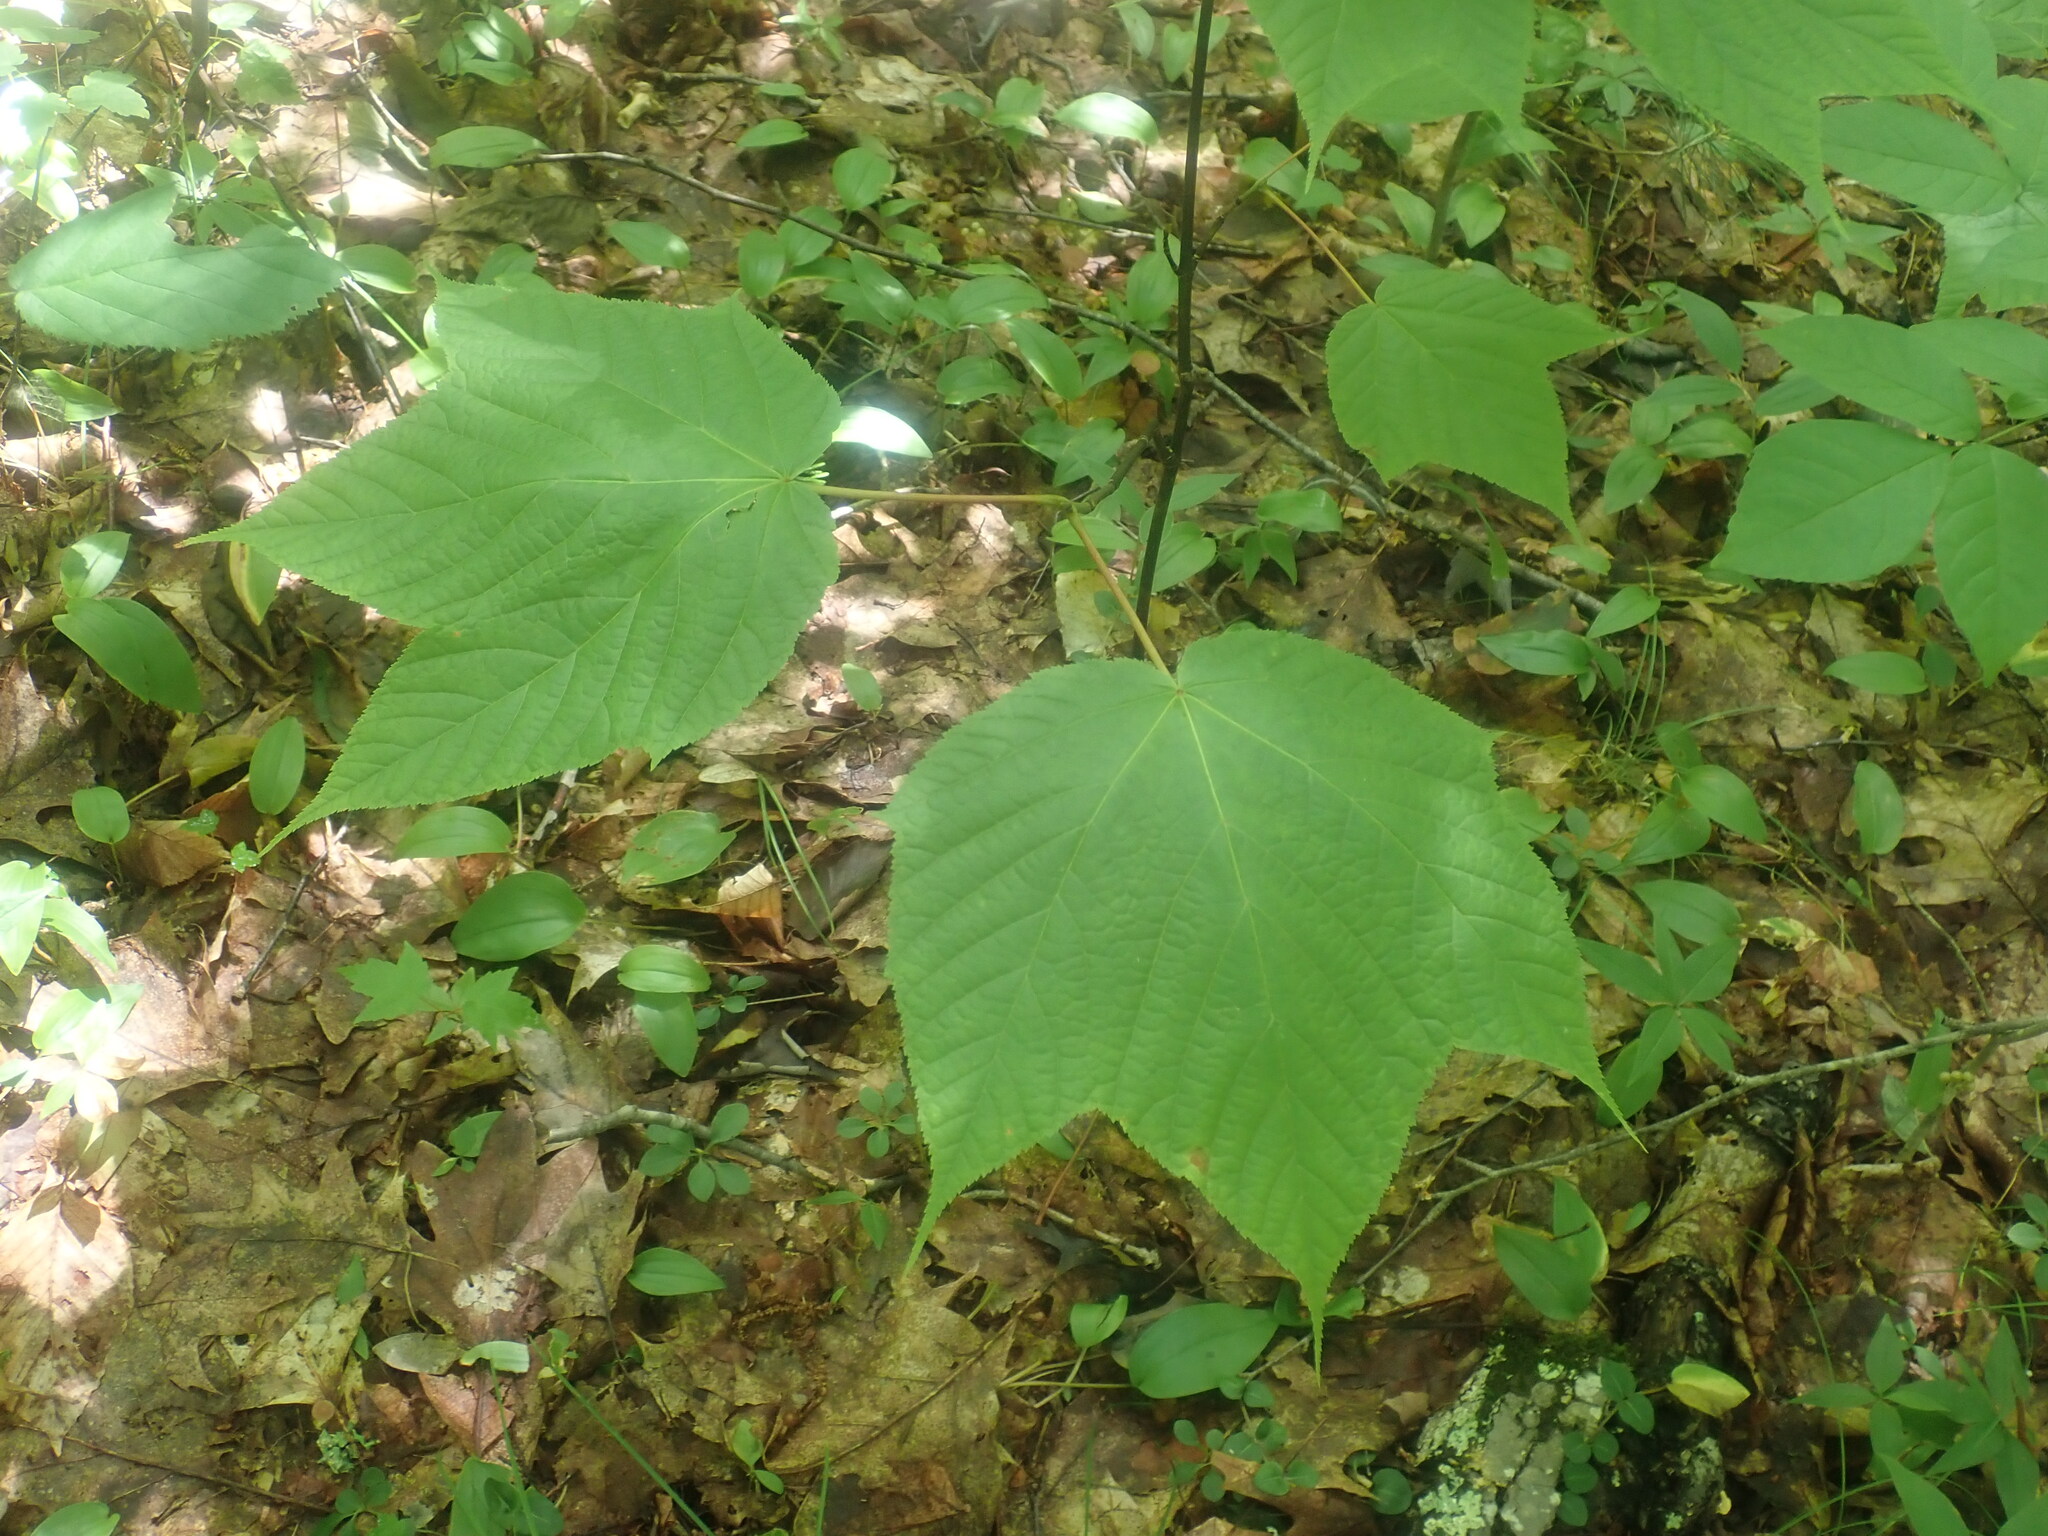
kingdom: Plantae
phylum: Tracheophyta
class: Magnoliopsida
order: Sapindales
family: Sapindaceae
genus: Acer
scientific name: Acer pensylvanicum
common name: Moosewood
